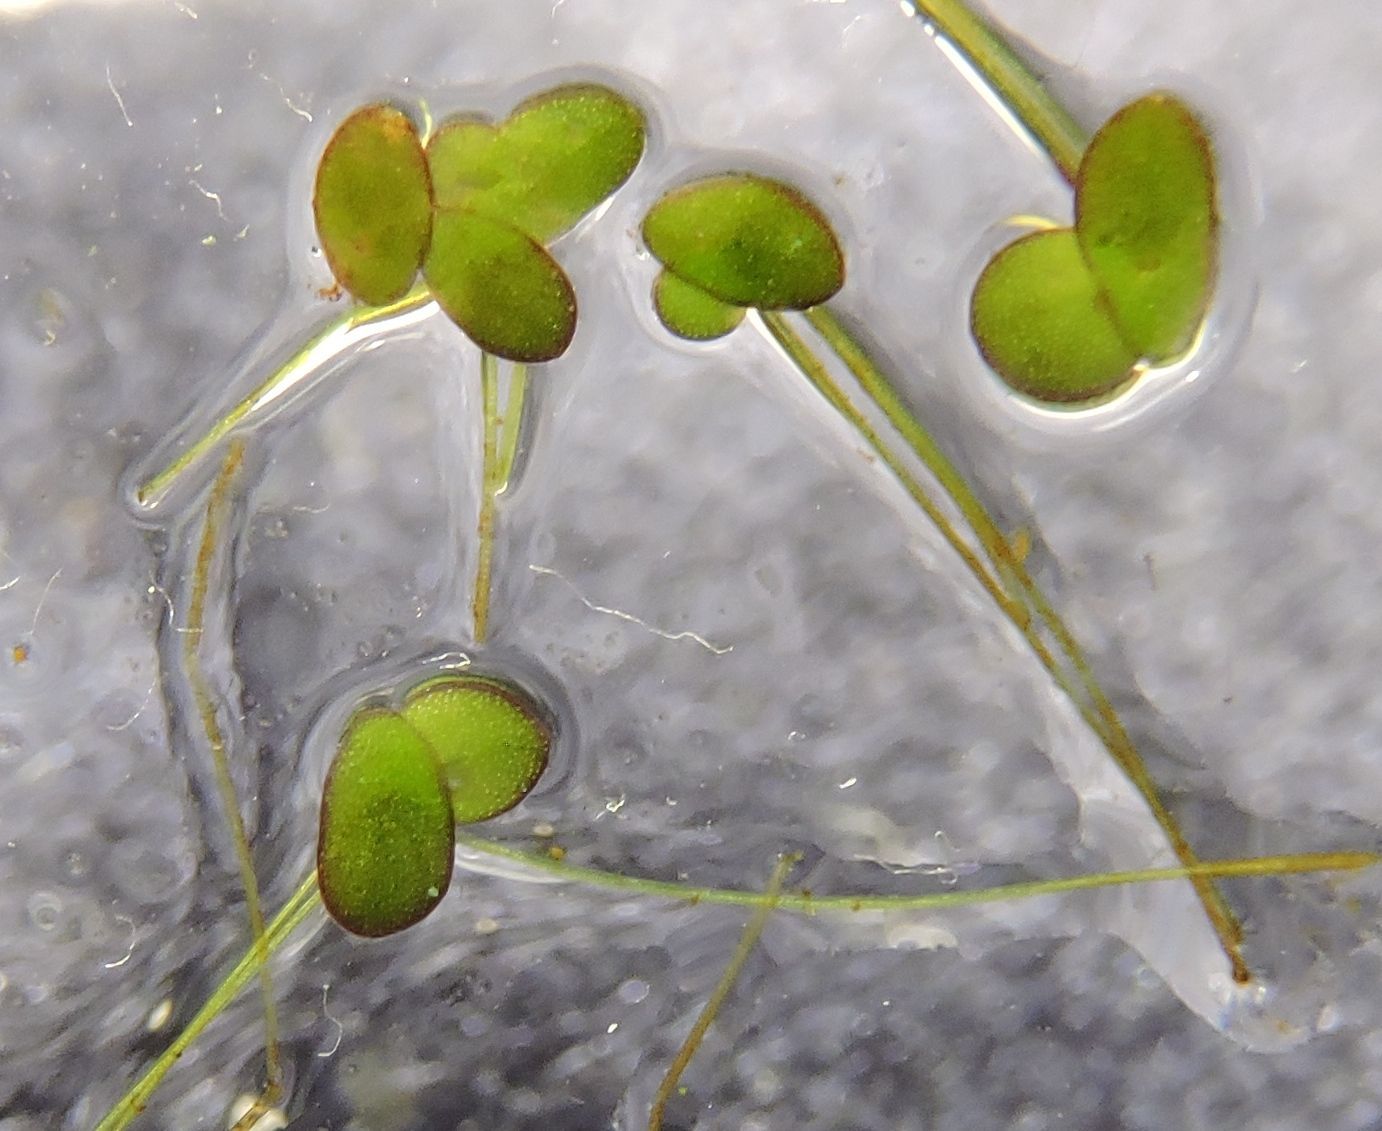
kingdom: Plantae
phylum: Tracheophyta
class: Liliopsida
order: Alismatales
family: Araceae
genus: Spirodela
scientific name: Spirodela polyrhiza
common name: Great duckweed
